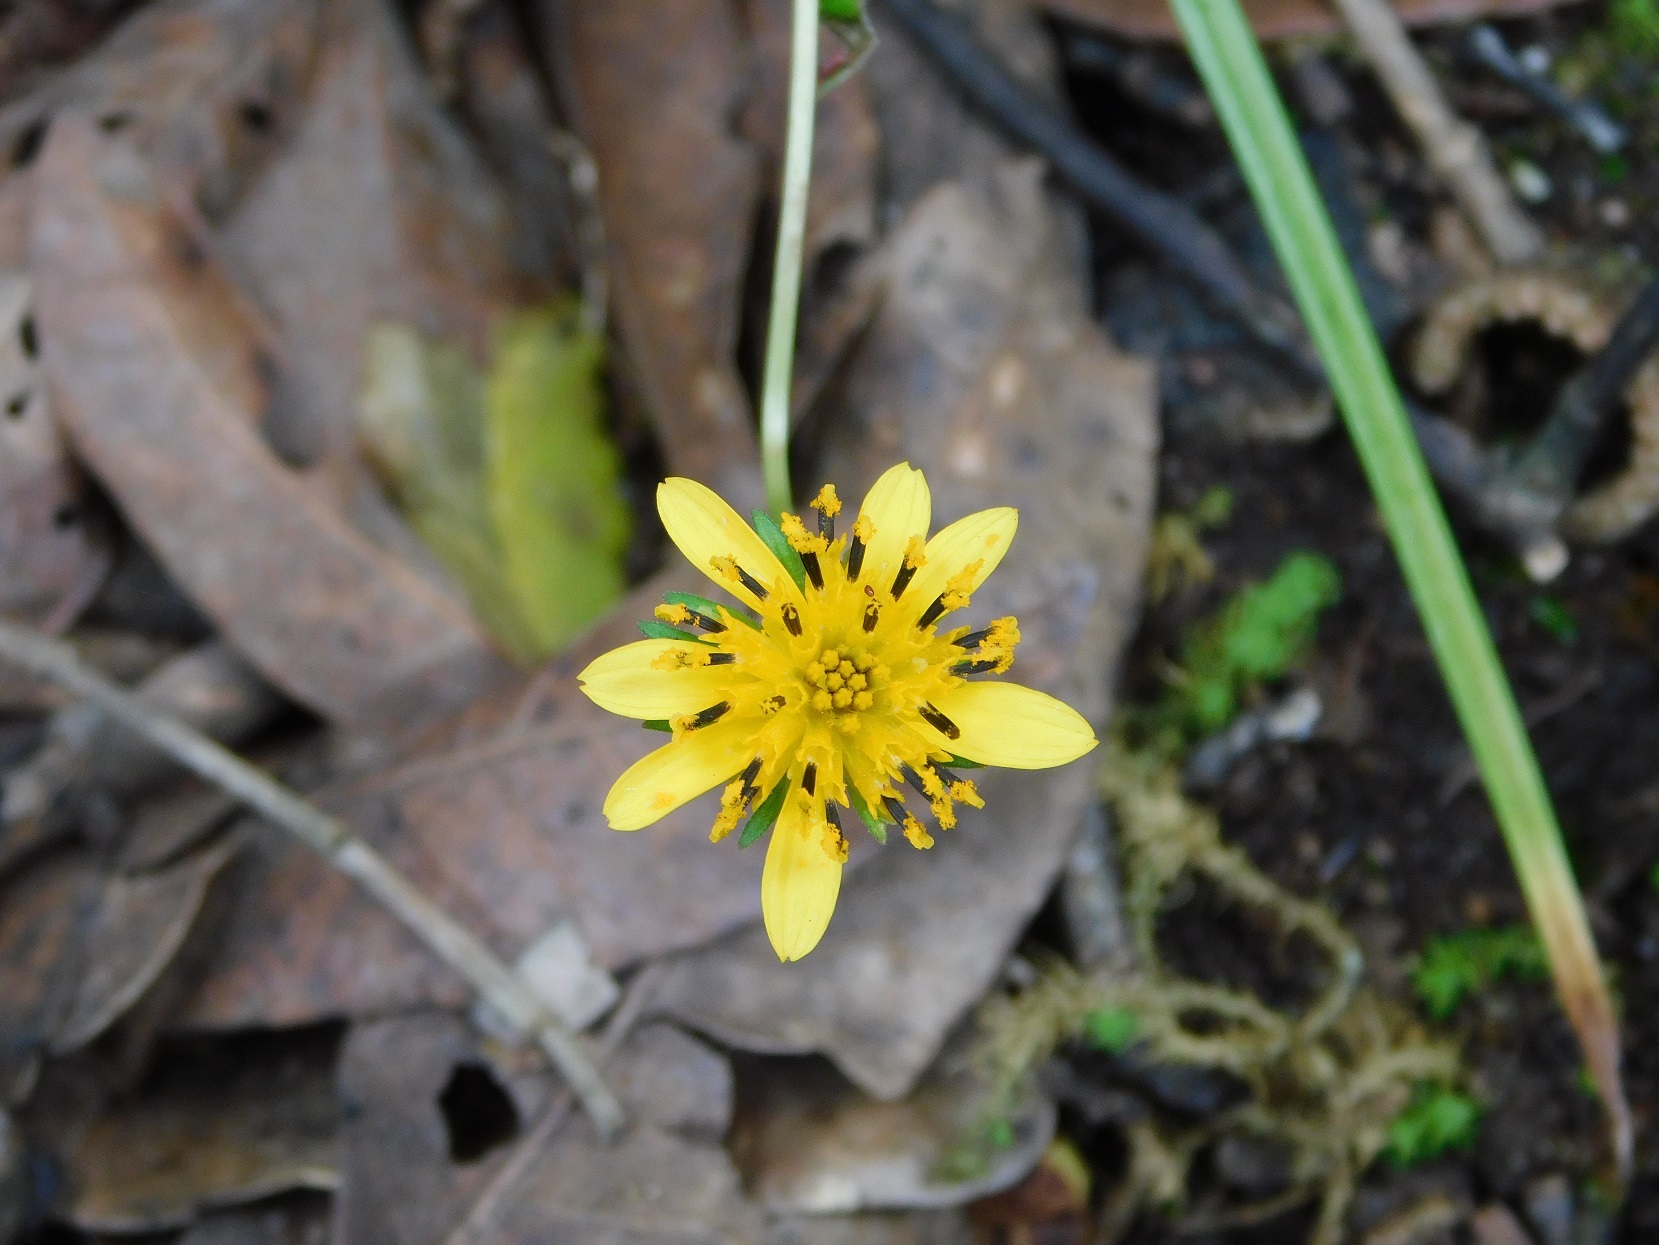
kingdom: Plantae
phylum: Tracheophyta
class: Magnoliopsida
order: Asterales
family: Asteraceae
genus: Bidens
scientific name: Bidens chiapensis
